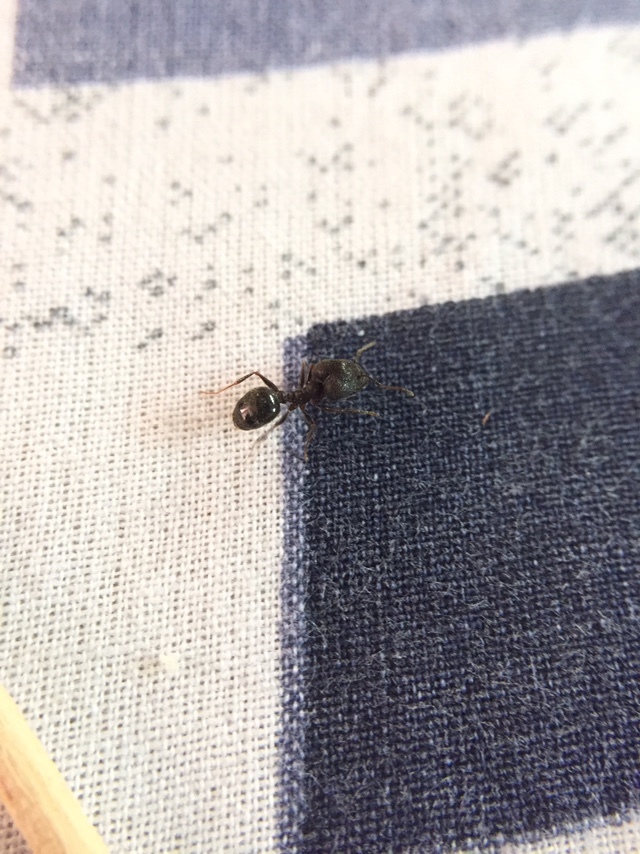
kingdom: Animalia
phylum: Arthropoda
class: Insecta
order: Hymenoptera
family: Formicidae
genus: Pheidole
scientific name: Pheidole latinoda
